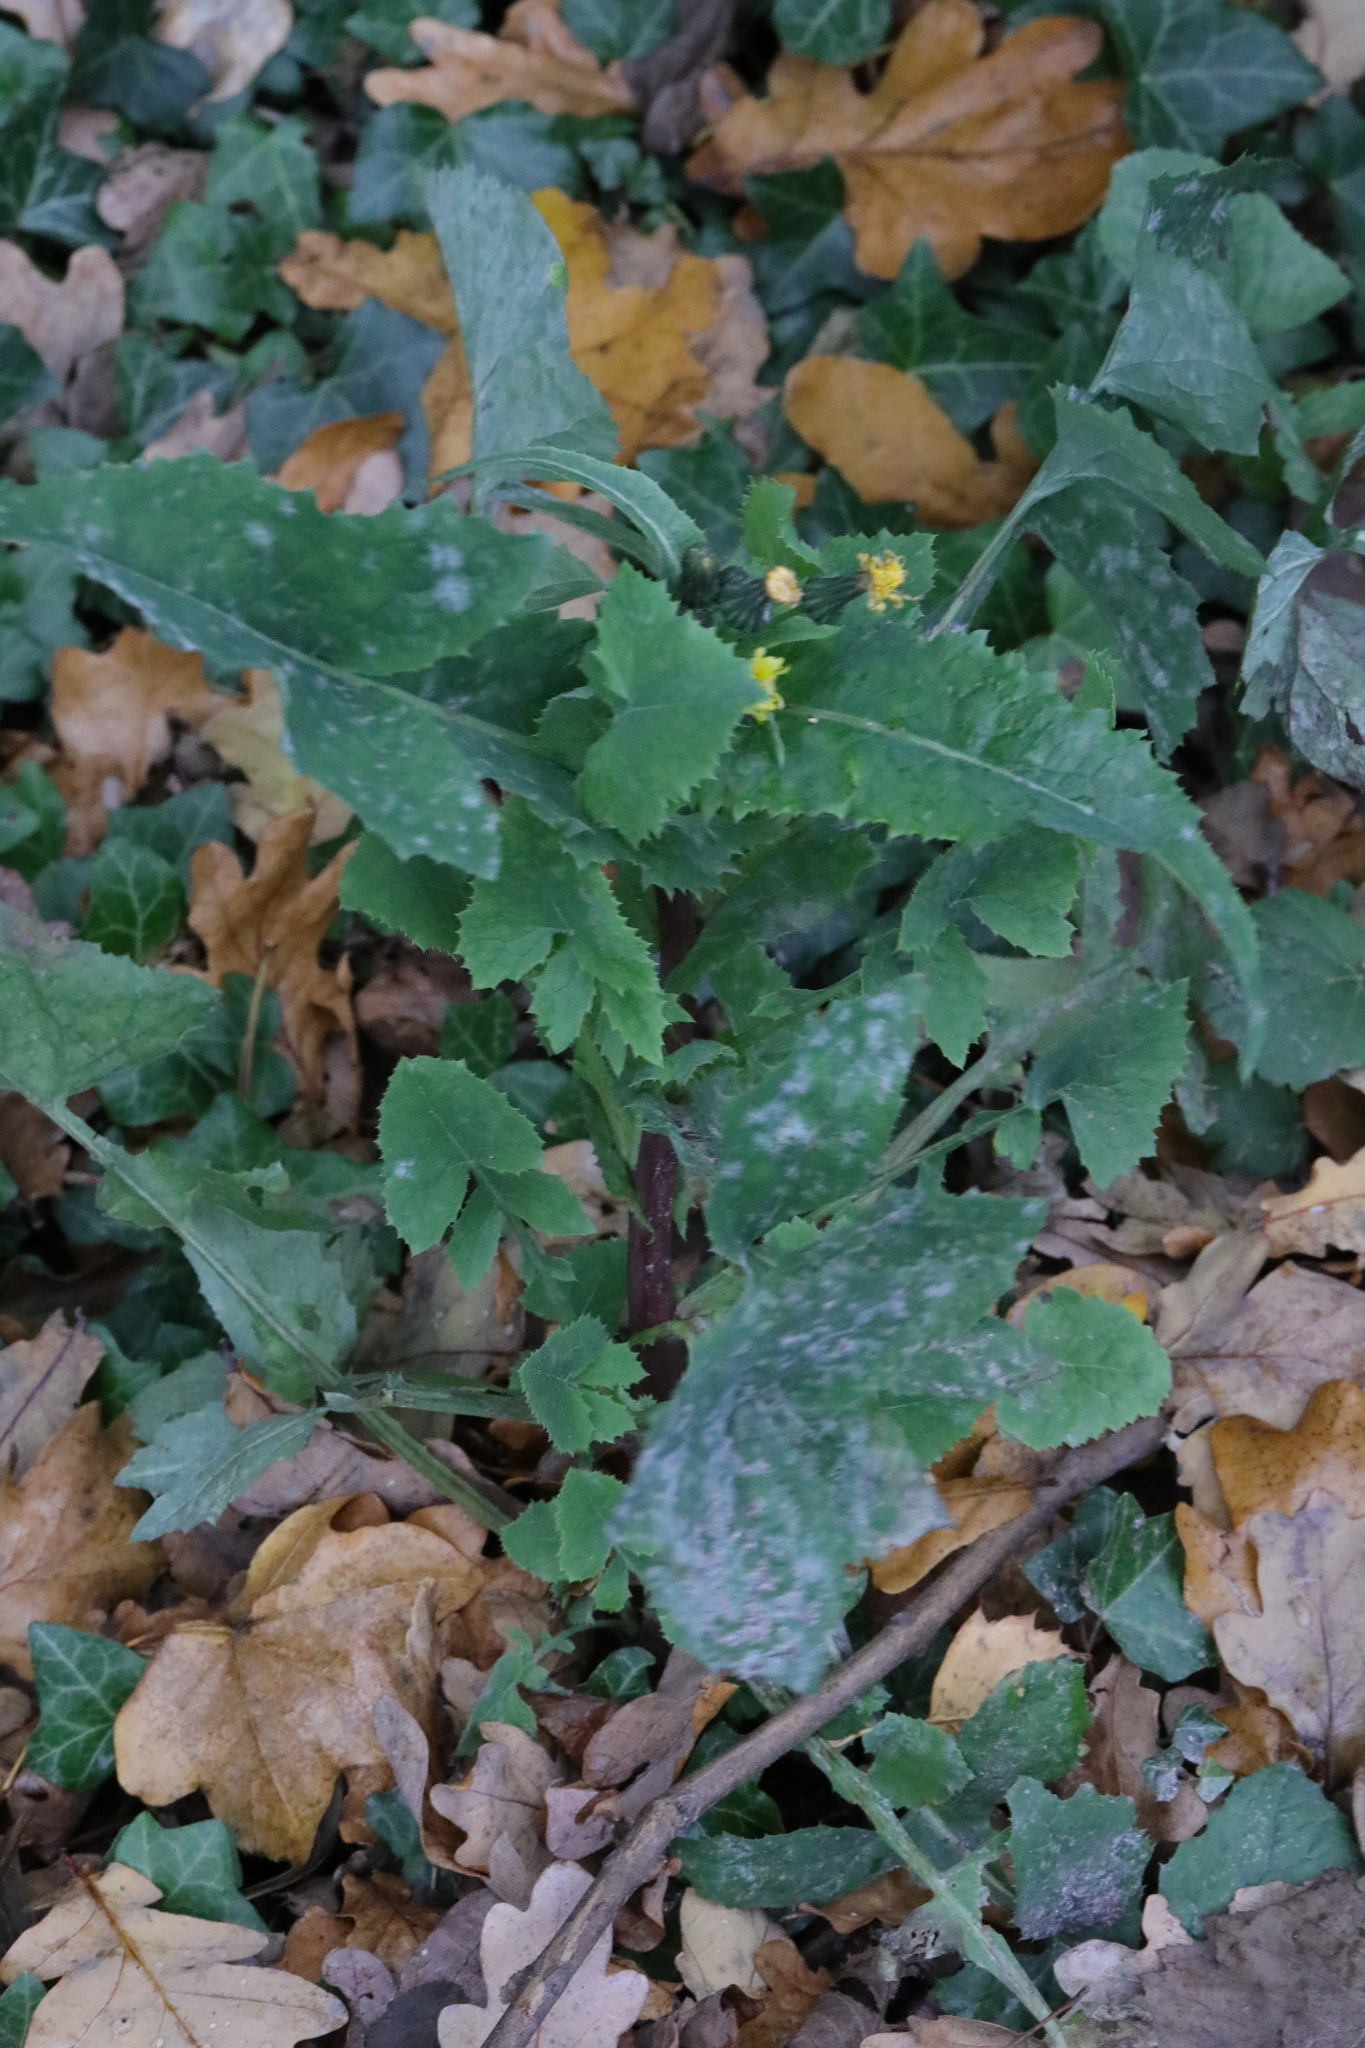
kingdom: Plantae
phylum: Tracheophyta
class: Magnoliopsida
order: Asterales
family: Asteraceae
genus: Sonchus
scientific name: Sonchus oleraceus
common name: Common sowthistle
